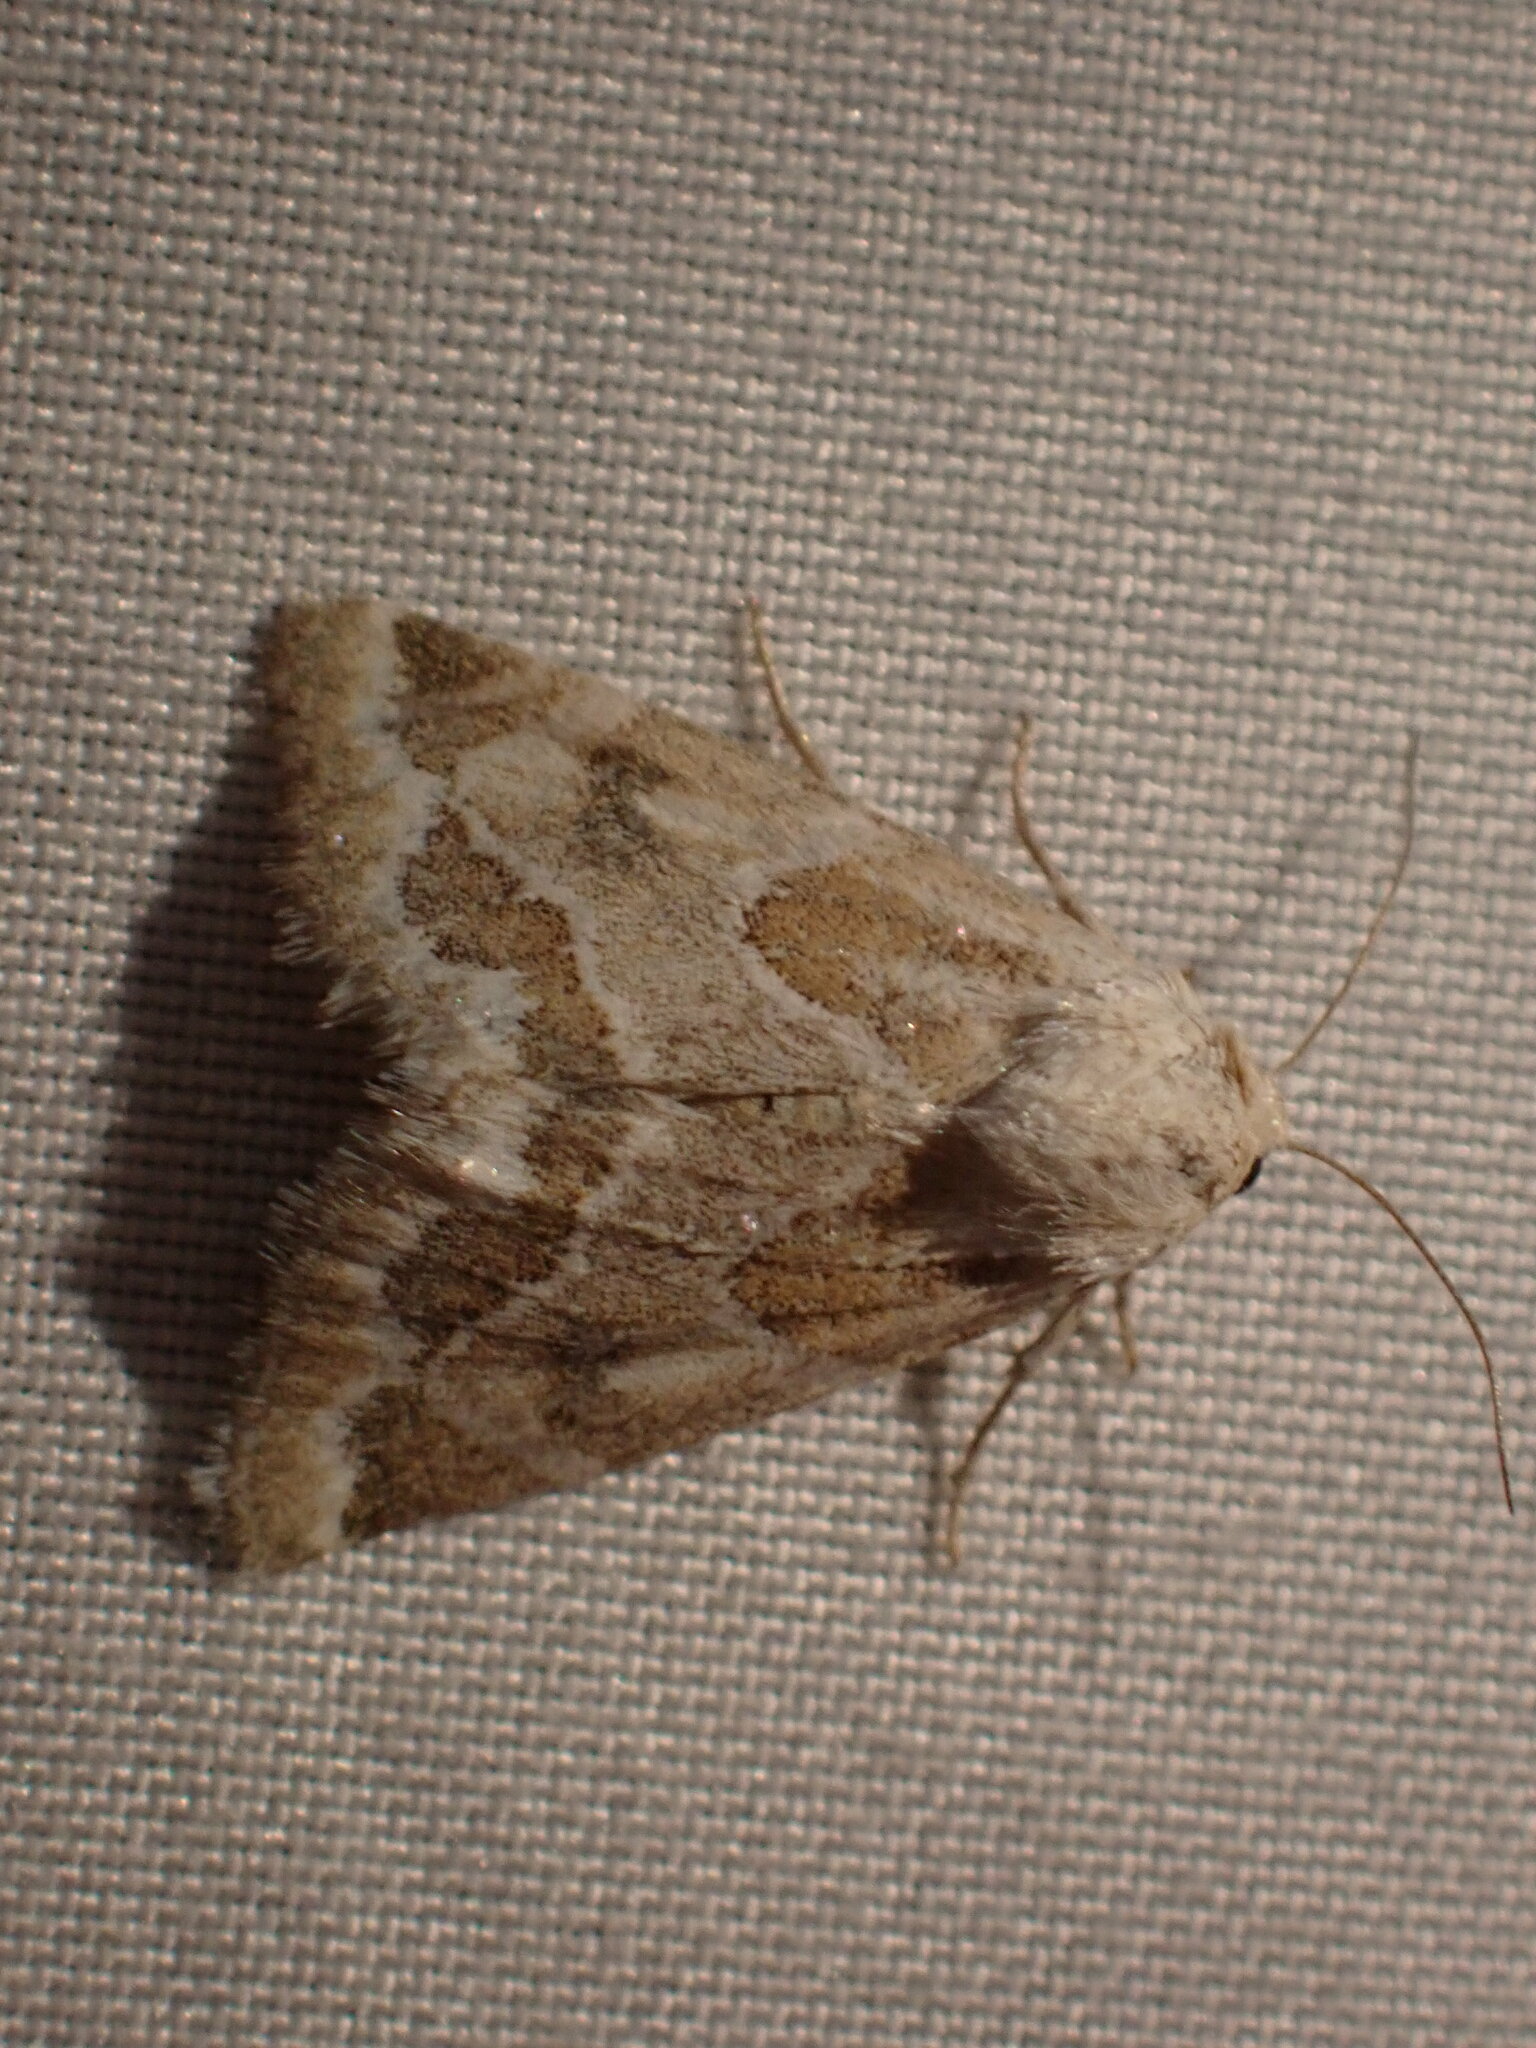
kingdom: Animalia
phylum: Arthropoda
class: Insecta
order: Lepidoptera
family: Noctuidae
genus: Schinia
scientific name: Schinia acutilinea
